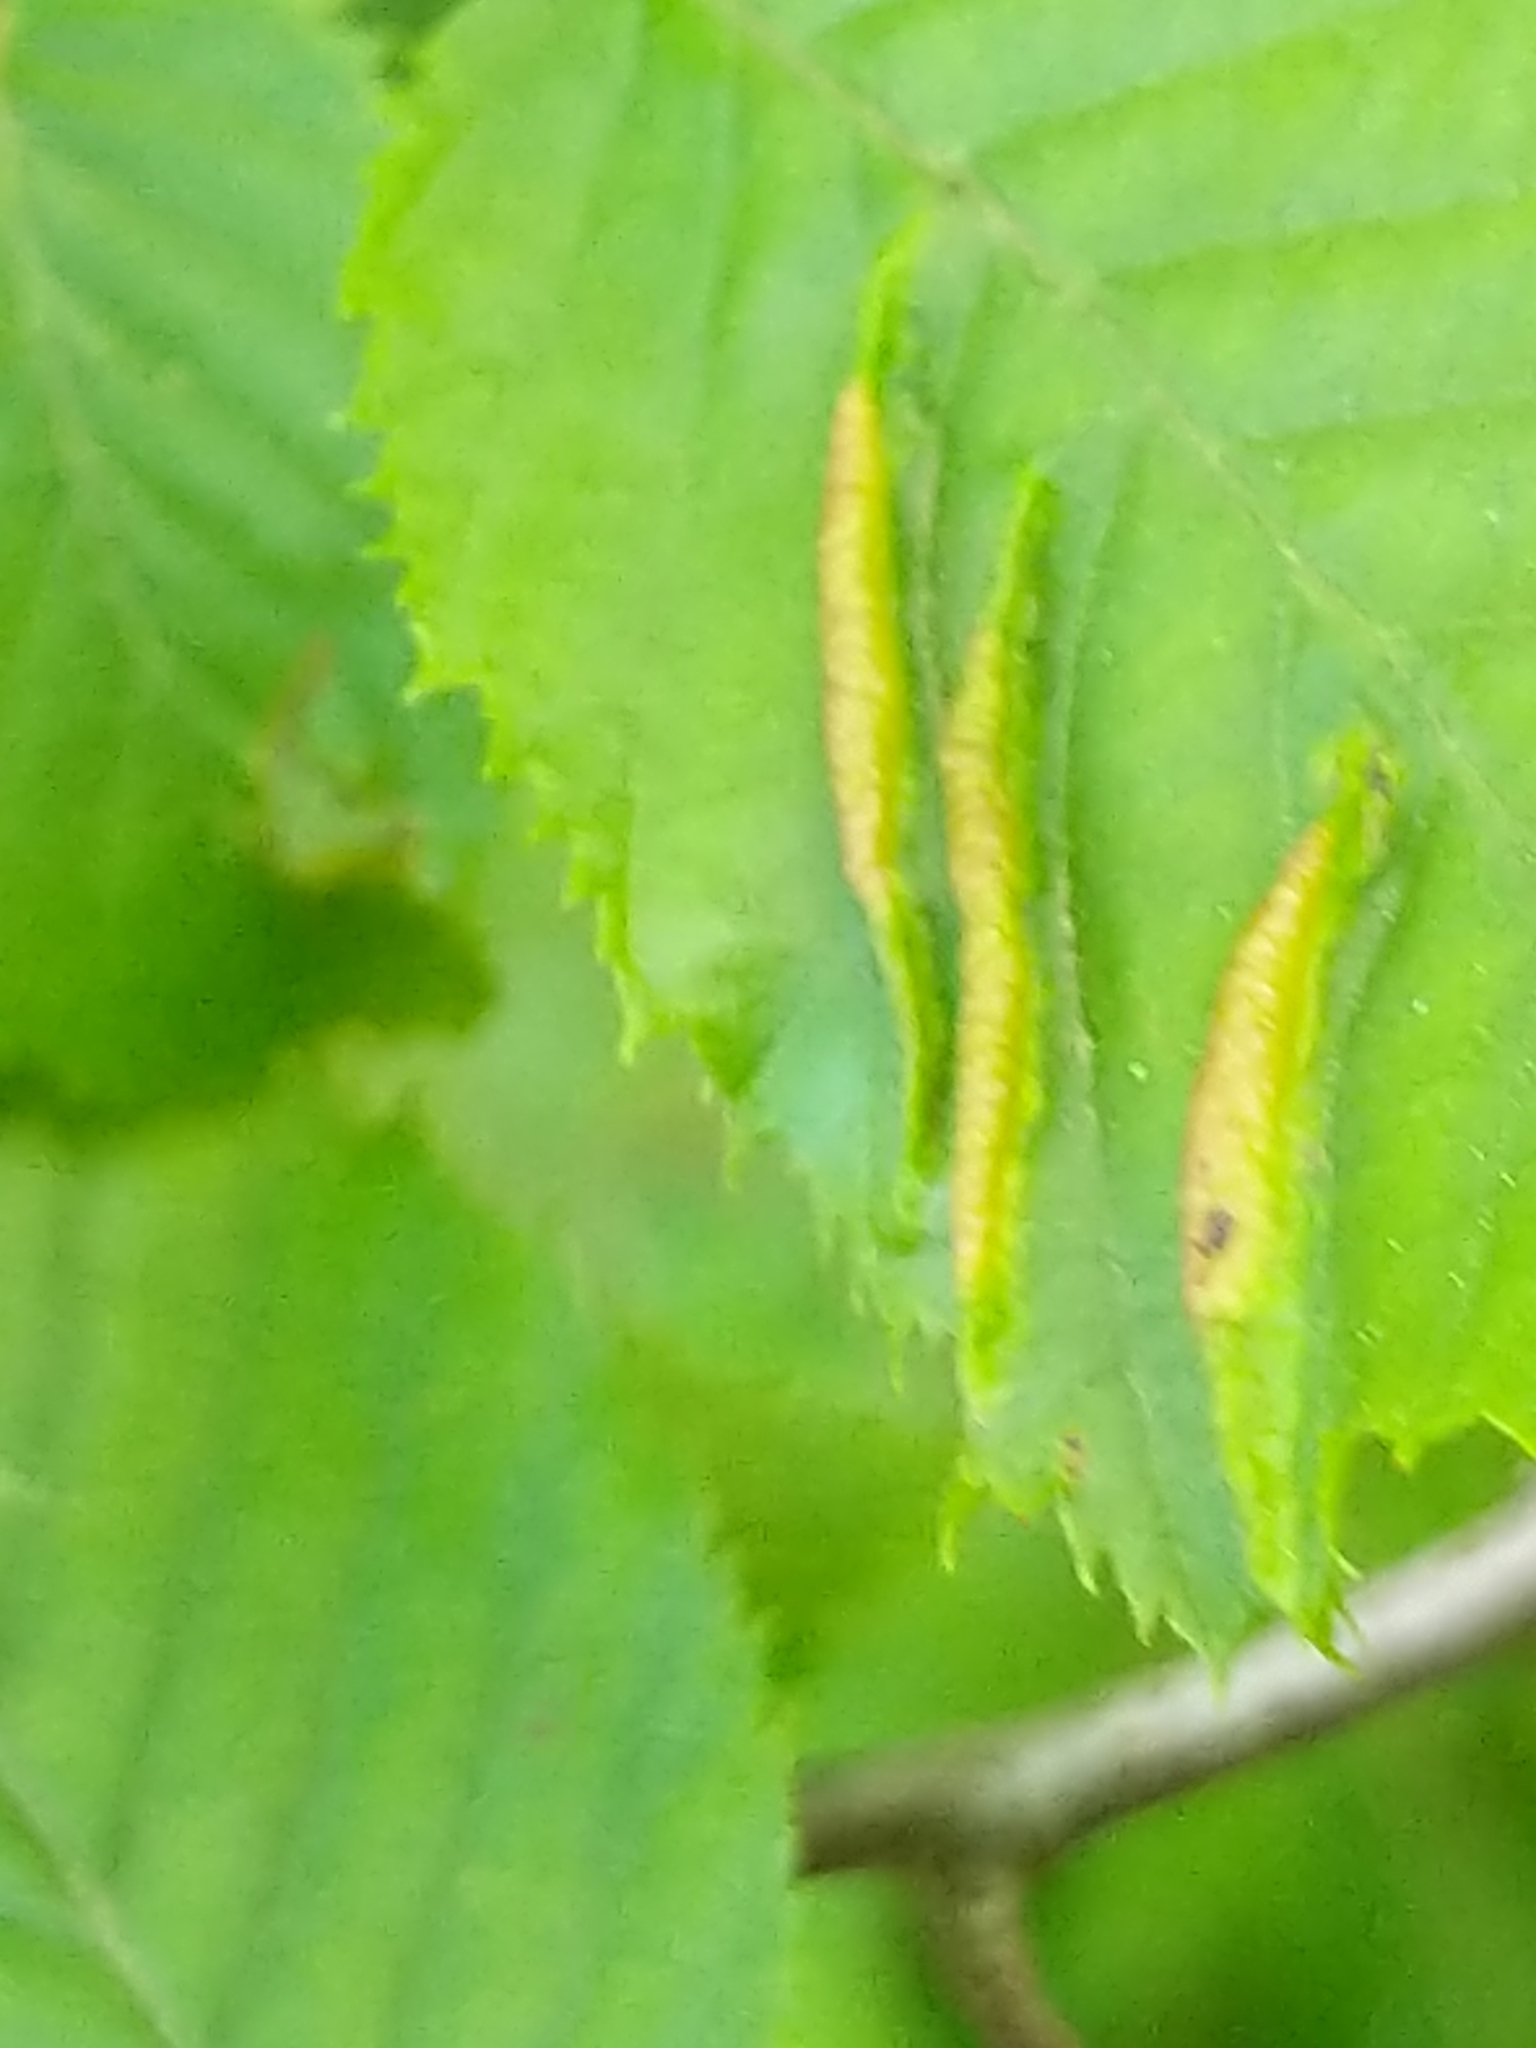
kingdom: Animalia
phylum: Arthropoda
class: Insecta
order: Diptera
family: Cecidomyiidae
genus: Dasineura
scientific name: Dasineura pudibunda
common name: Hornbeam leaf gall midge
